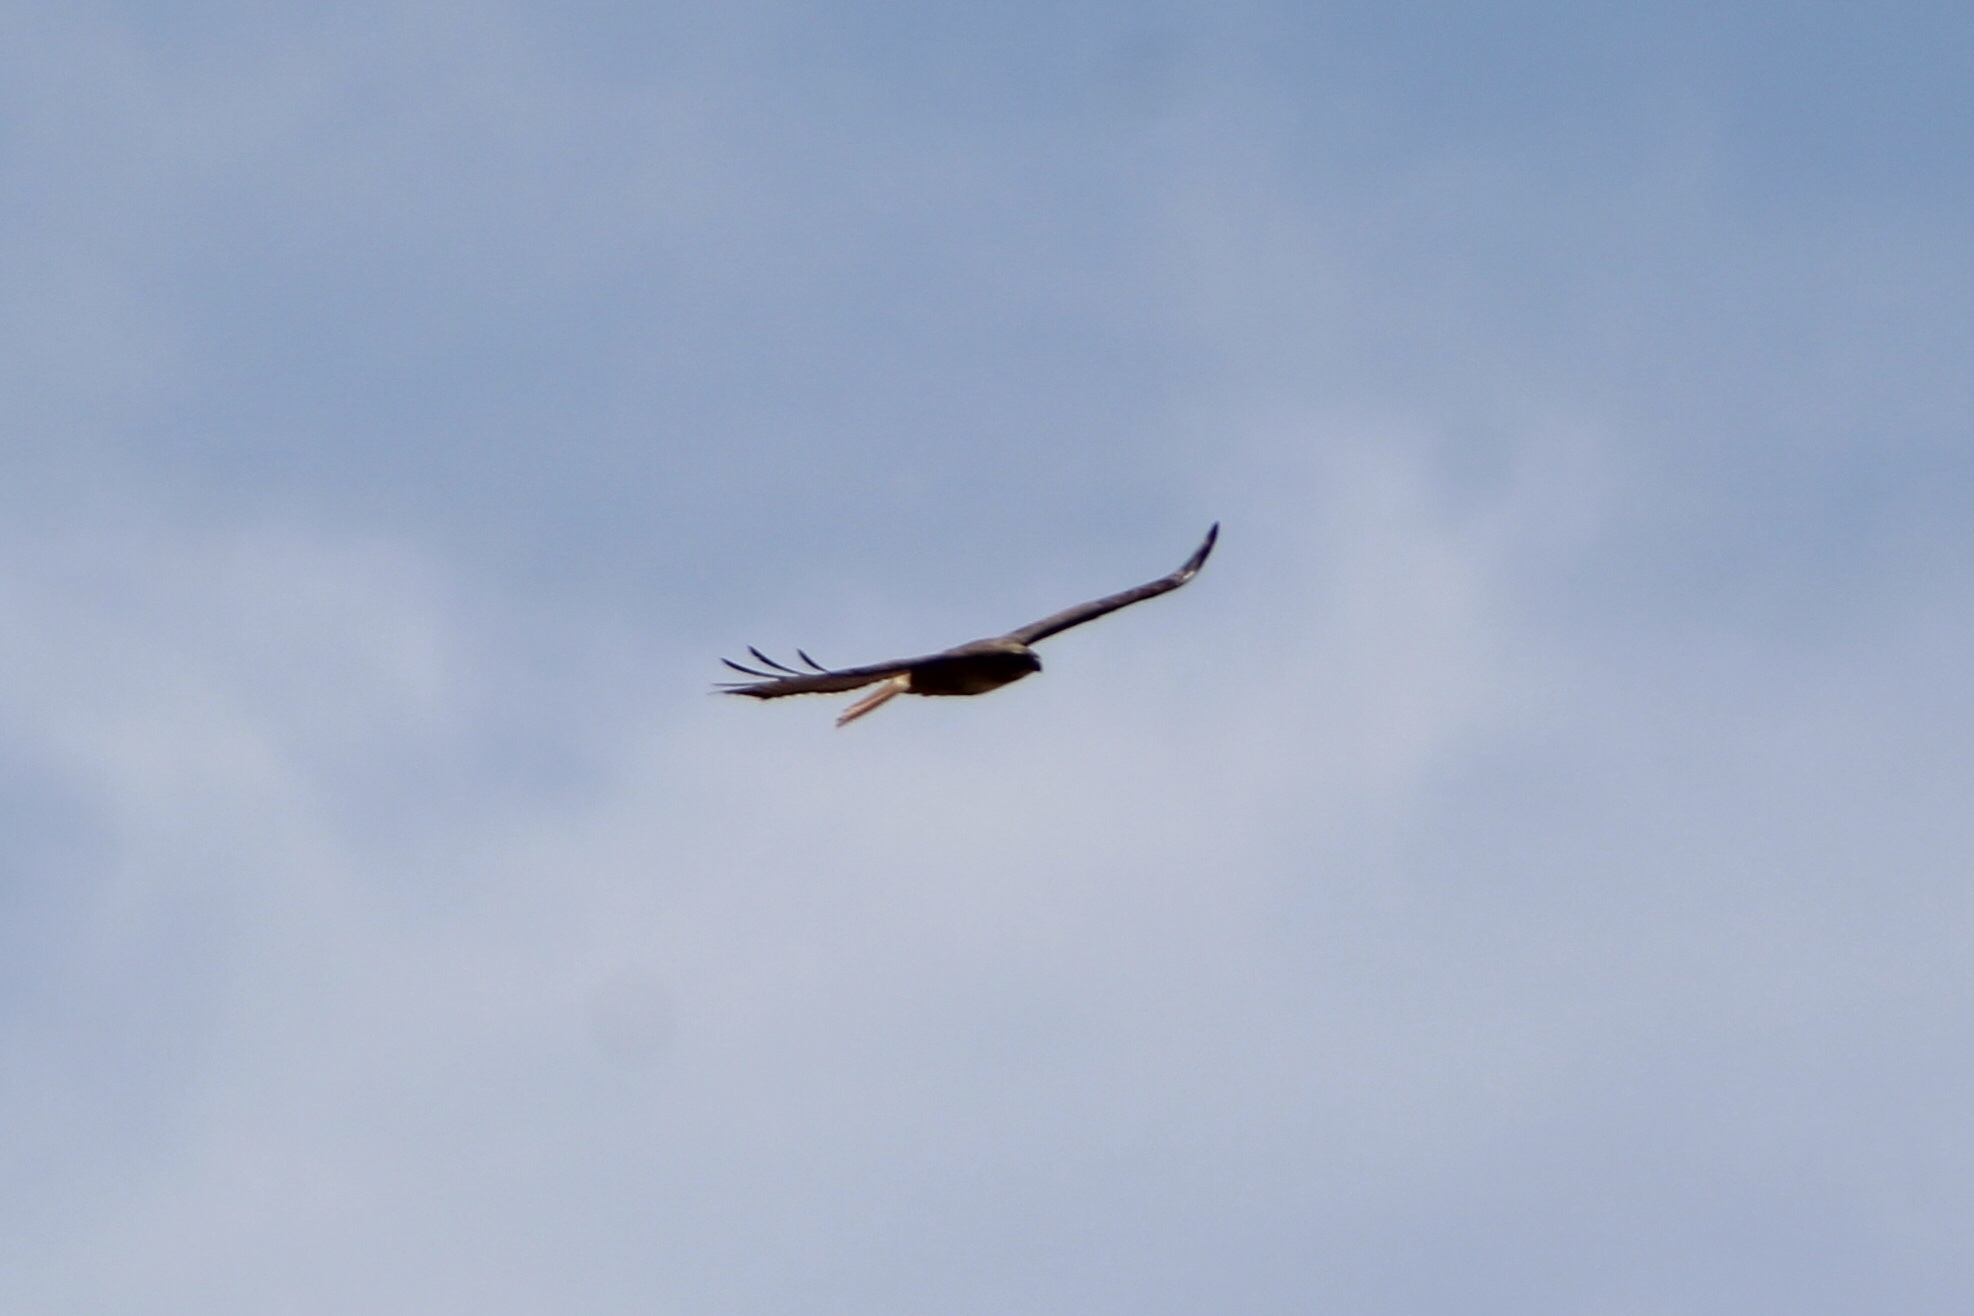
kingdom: Animalia
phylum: Chordata
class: Aves
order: Accipitriformes
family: Accipitridae
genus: Buteo
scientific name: Buteo jamaicensis
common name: Red-tailed hawk
